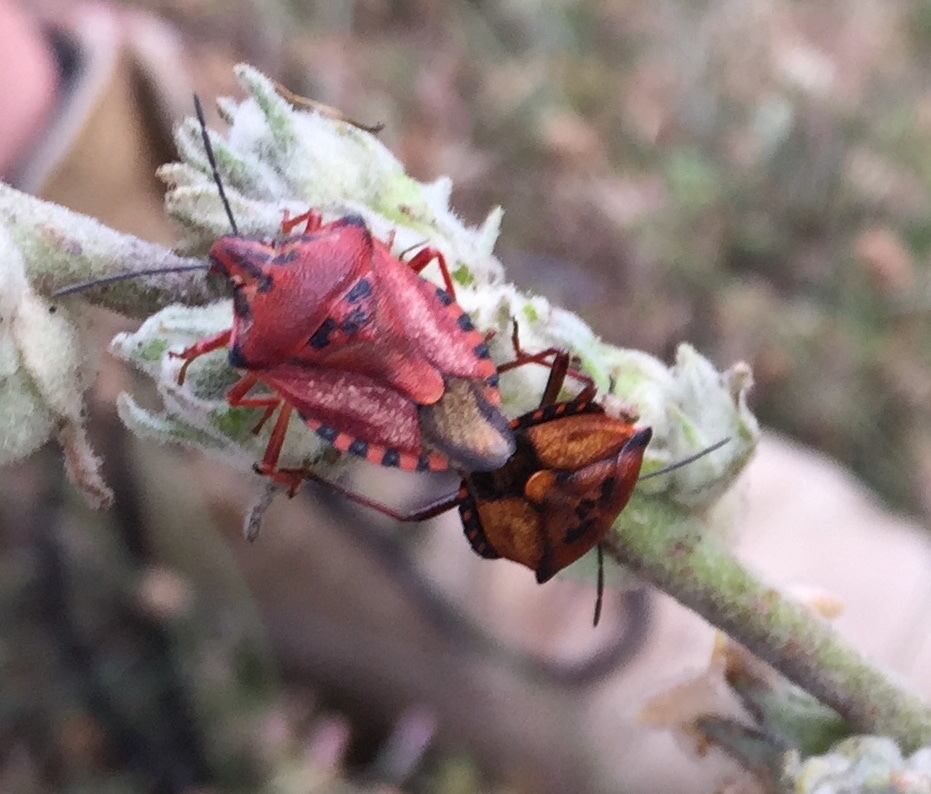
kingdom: Animalia
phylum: Arthropoda
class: Insecta
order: Hemiptera
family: Pentatomidae
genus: Carpocoris
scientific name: Carpocoris mediterraneus
